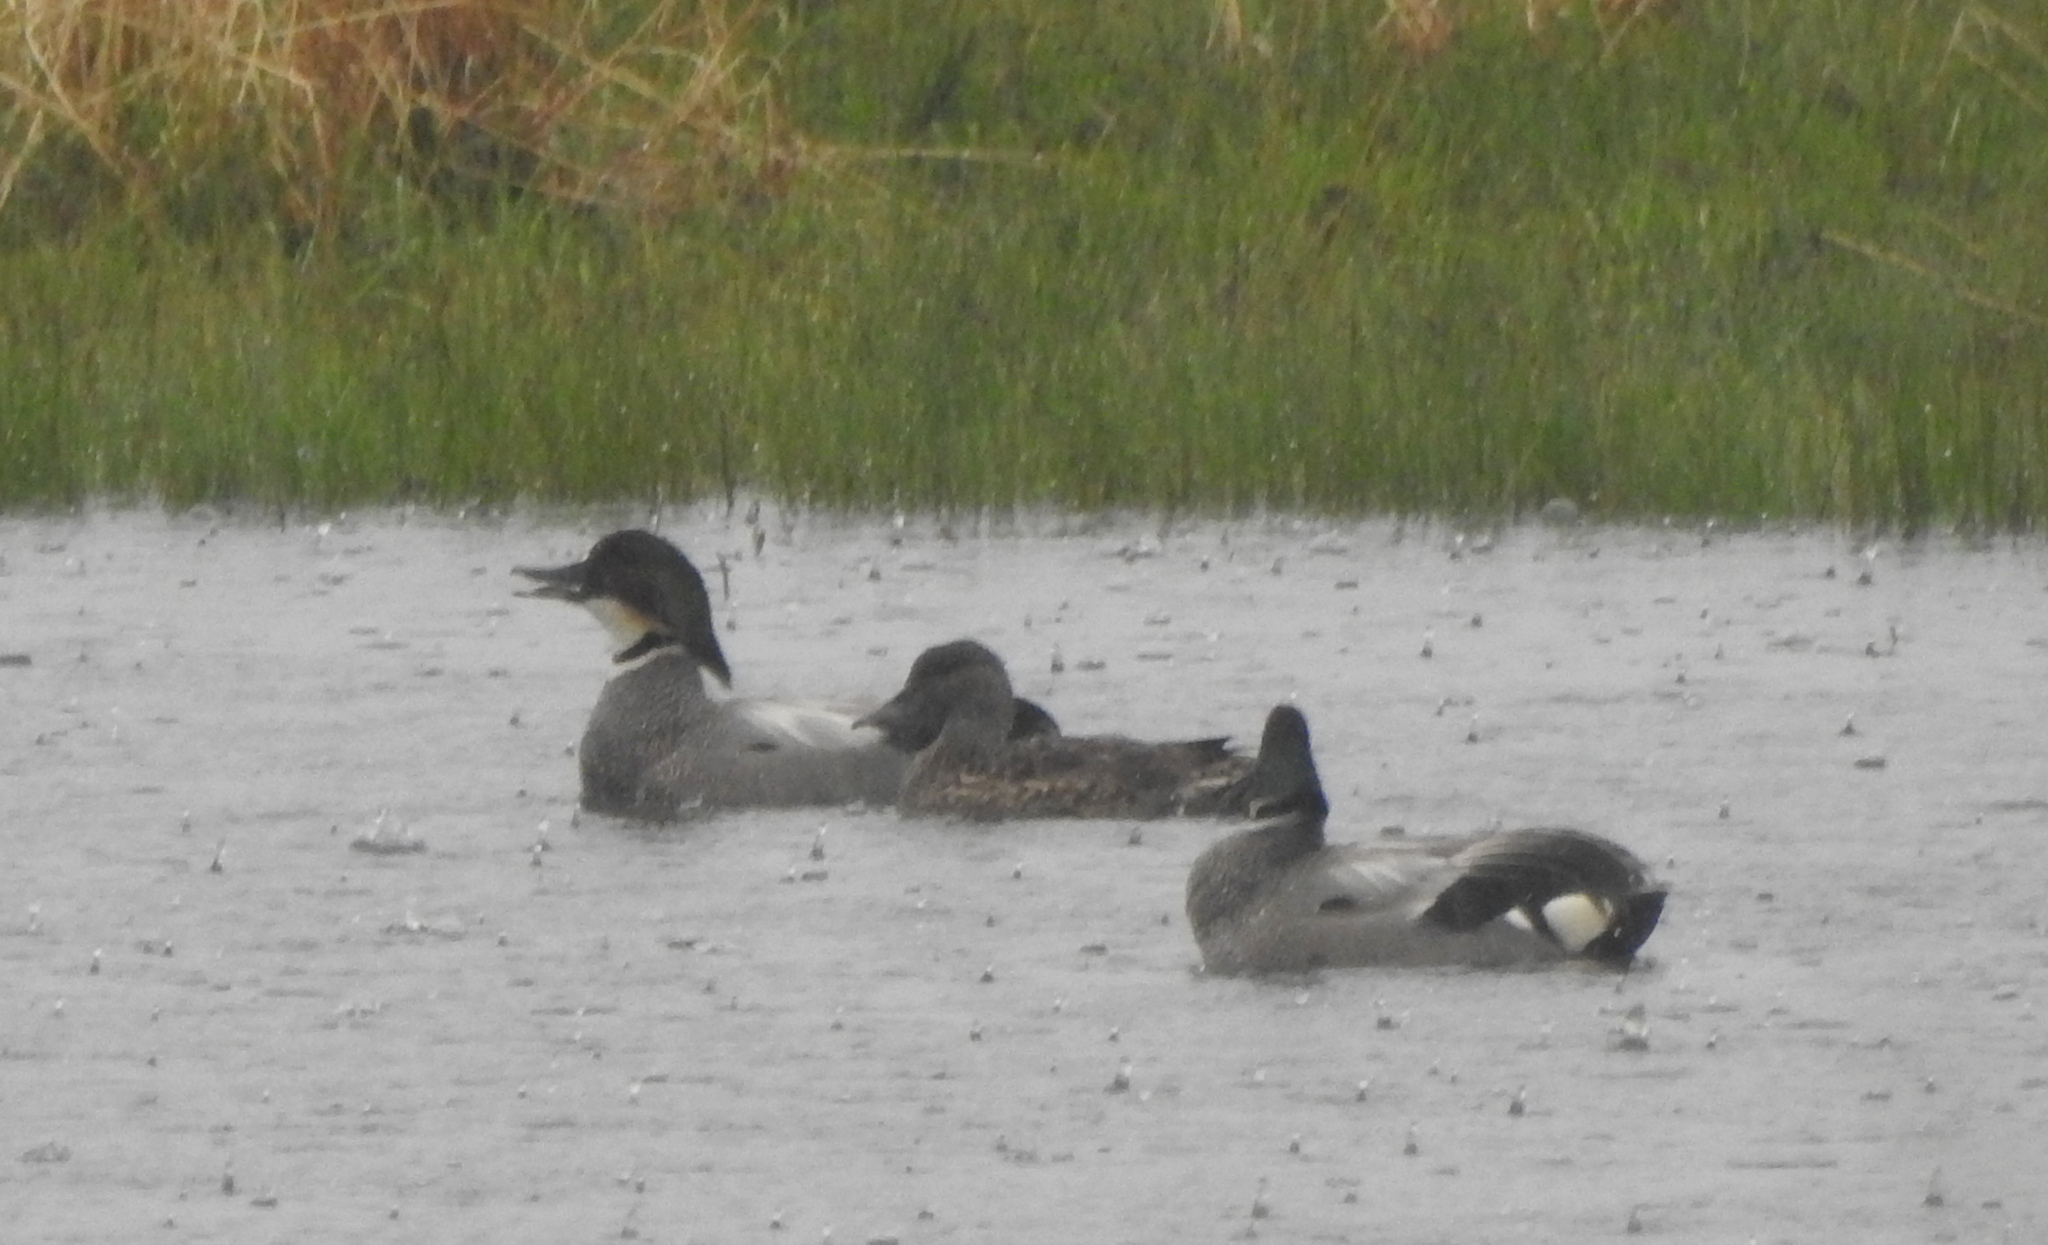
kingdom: Animalia
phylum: Chordata
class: Aves
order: Anseriformes
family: Anatidae
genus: Mareca
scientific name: Mareca falcata
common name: Falcated duck
